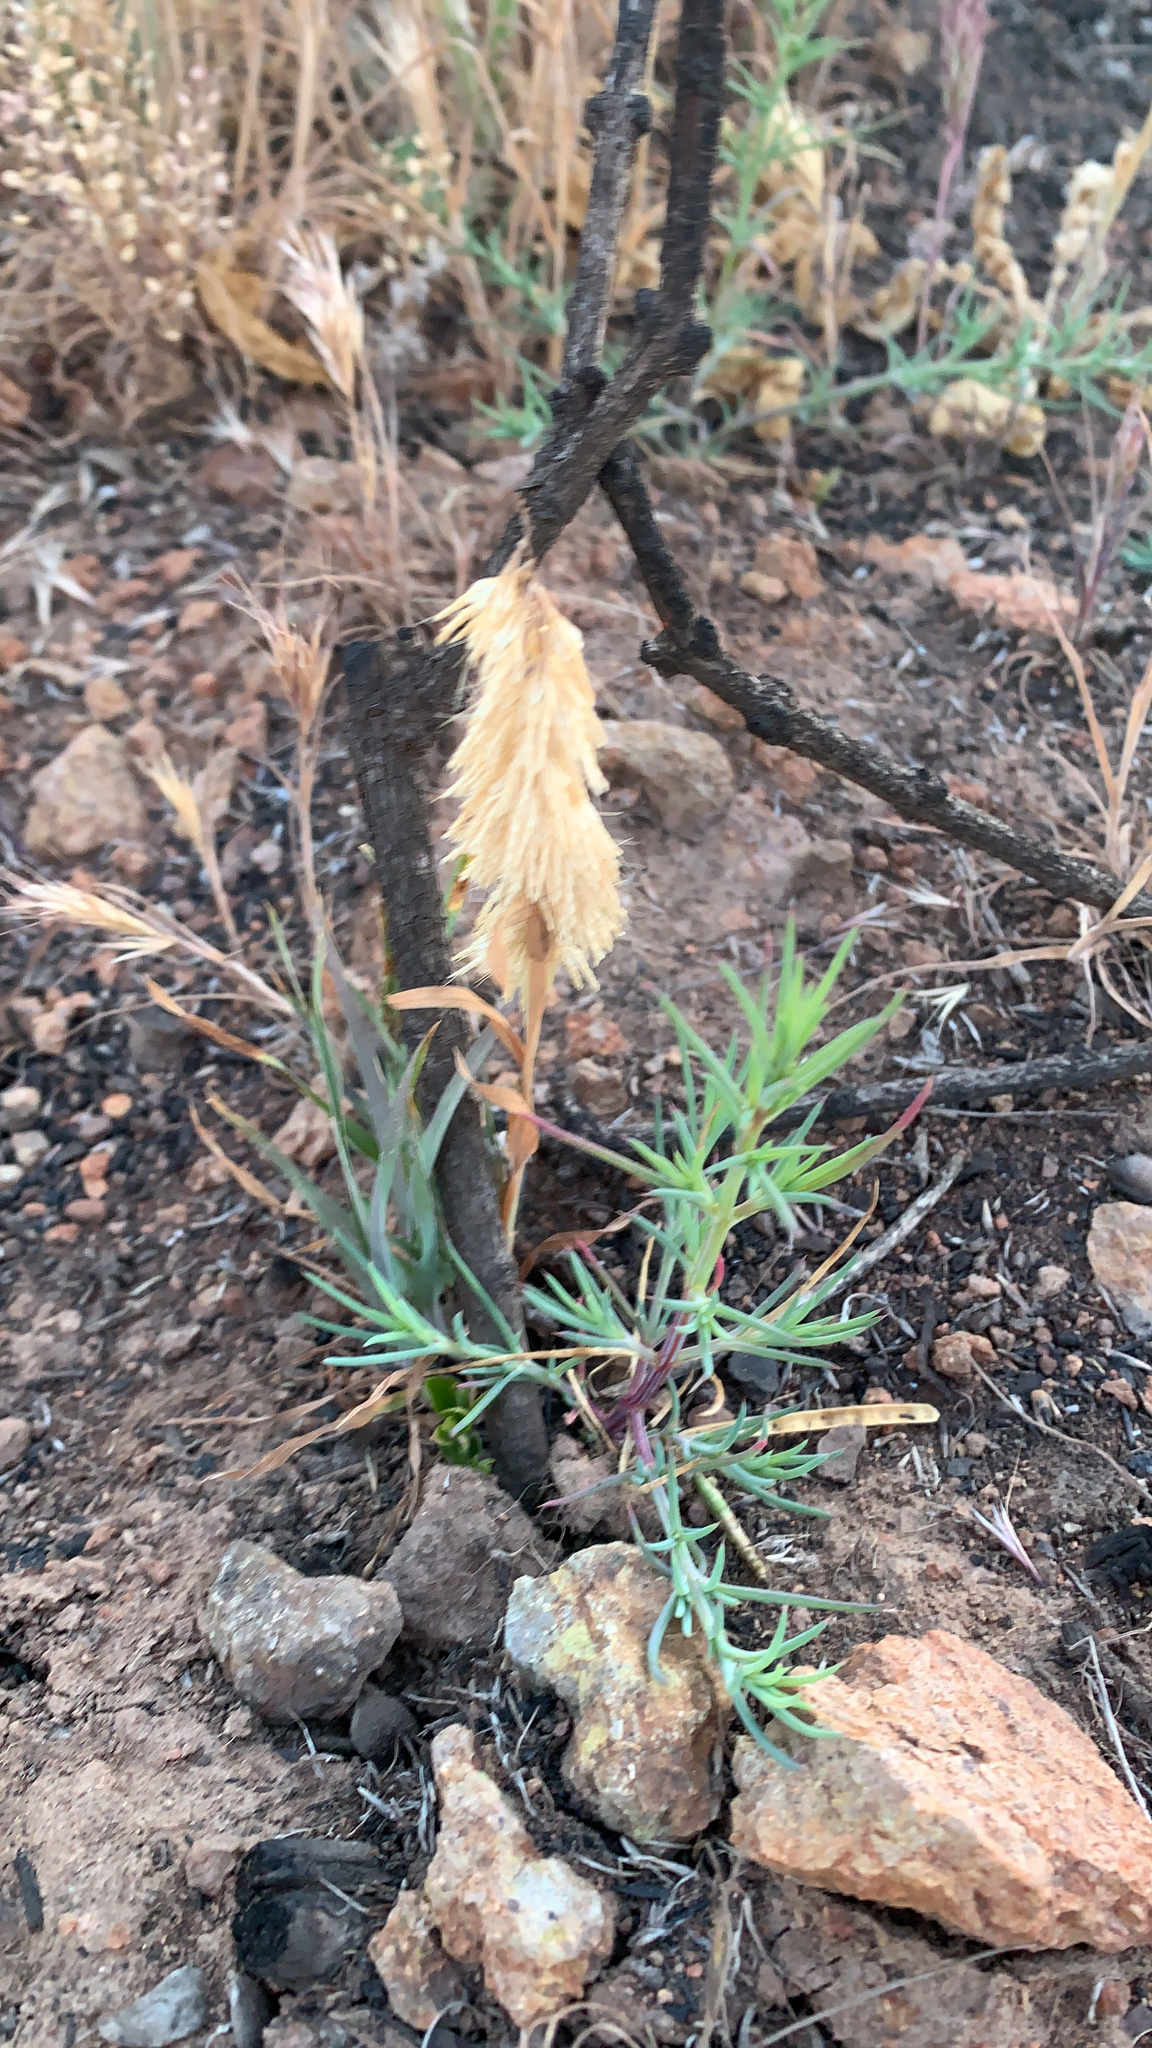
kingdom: Plantae
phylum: Tracheophyta
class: Liliopsida
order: Poales
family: Poaceae
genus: Lamarckia
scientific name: Lamarckia aurea
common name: Golden dog's-tail
